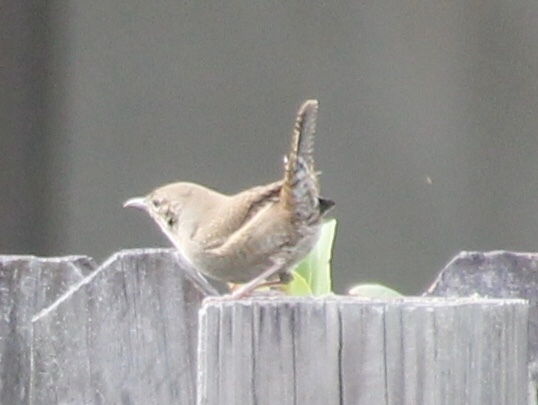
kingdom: Animalia
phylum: Chordata
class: Aves
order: Passeriformes
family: Troglodytidae
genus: Troglodytes
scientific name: Troglodytes aedon
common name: House wren
